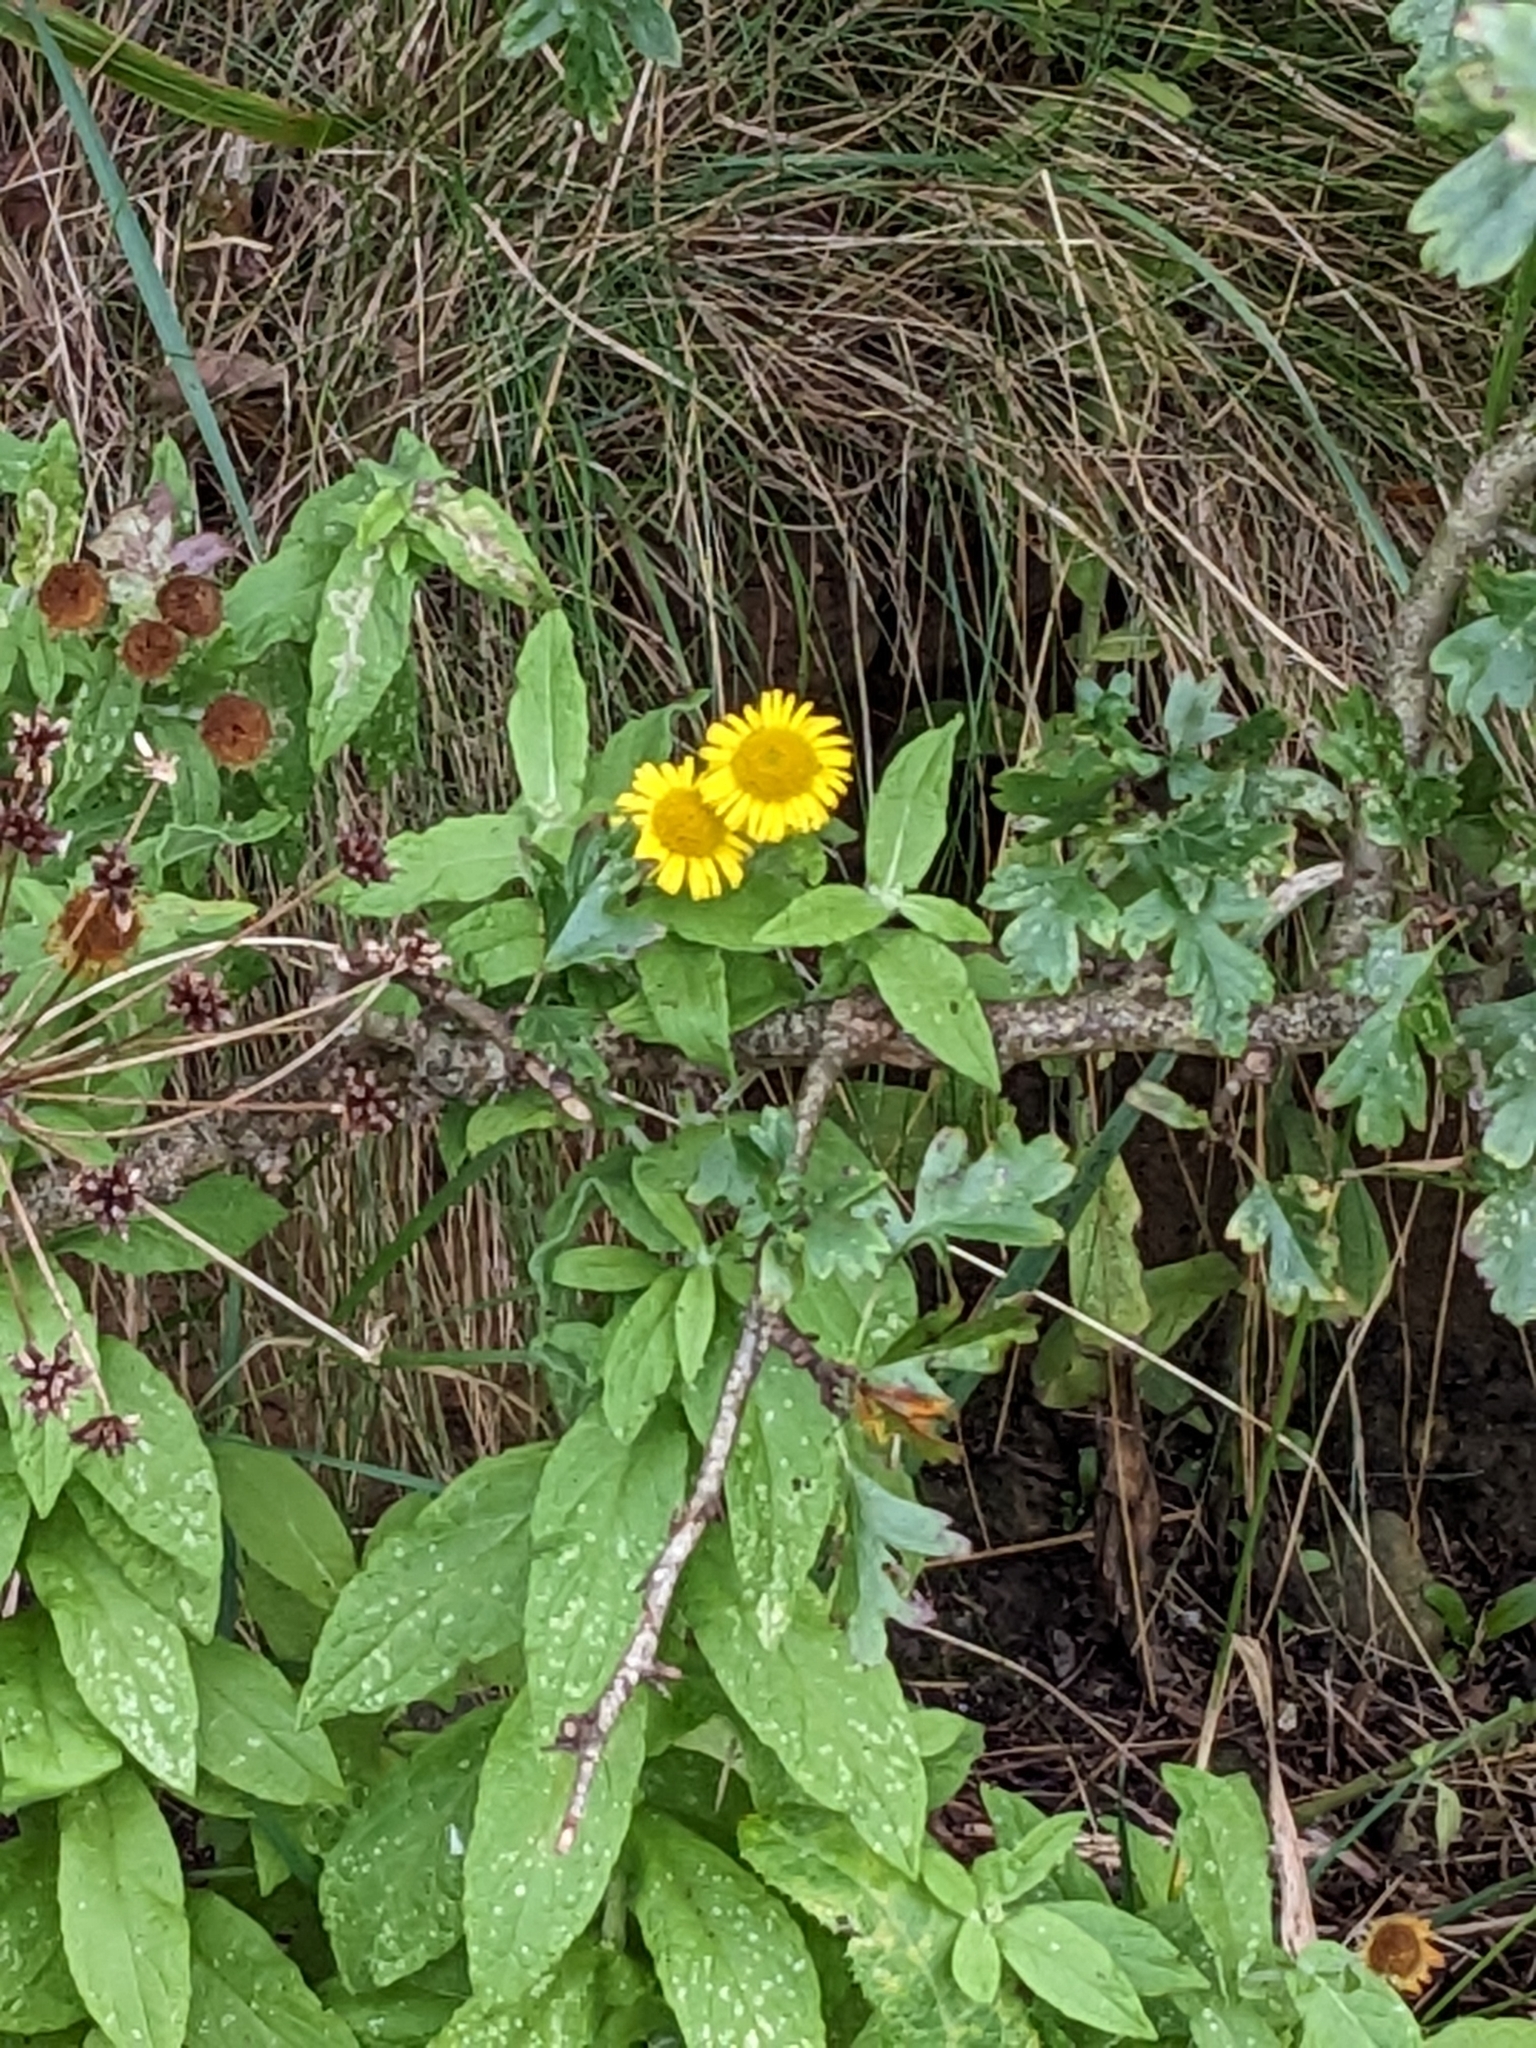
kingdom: Plantae
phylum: Tracheophyta
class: Magnoliopsida
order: Asterales
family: Asteraceae
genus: Pulicaria
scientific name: Pulicaria dysenterica
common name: Common fleabane
